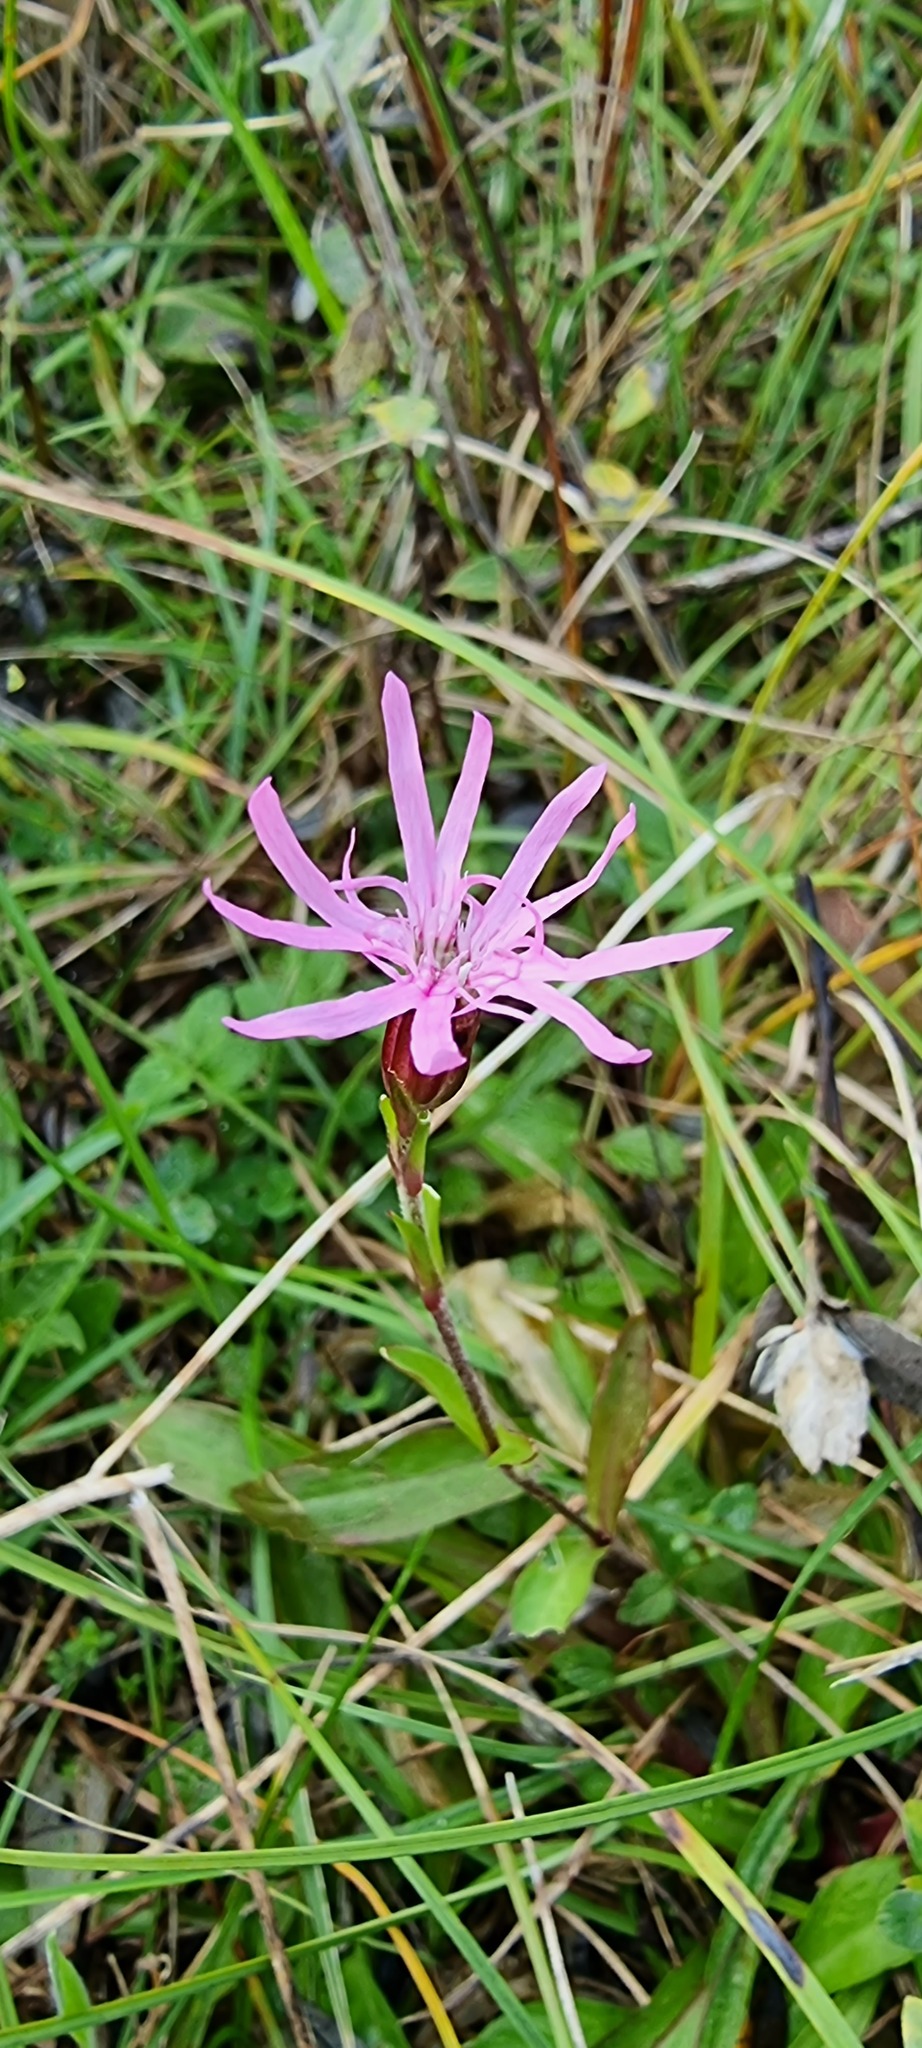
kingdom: Plantae
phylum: Tracheophyta
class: Magnoliopsida
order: Caryophyllales
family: Caryophyllaceae
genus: Silene
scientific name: Silene flos-cuculi
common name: Ragged-robin
